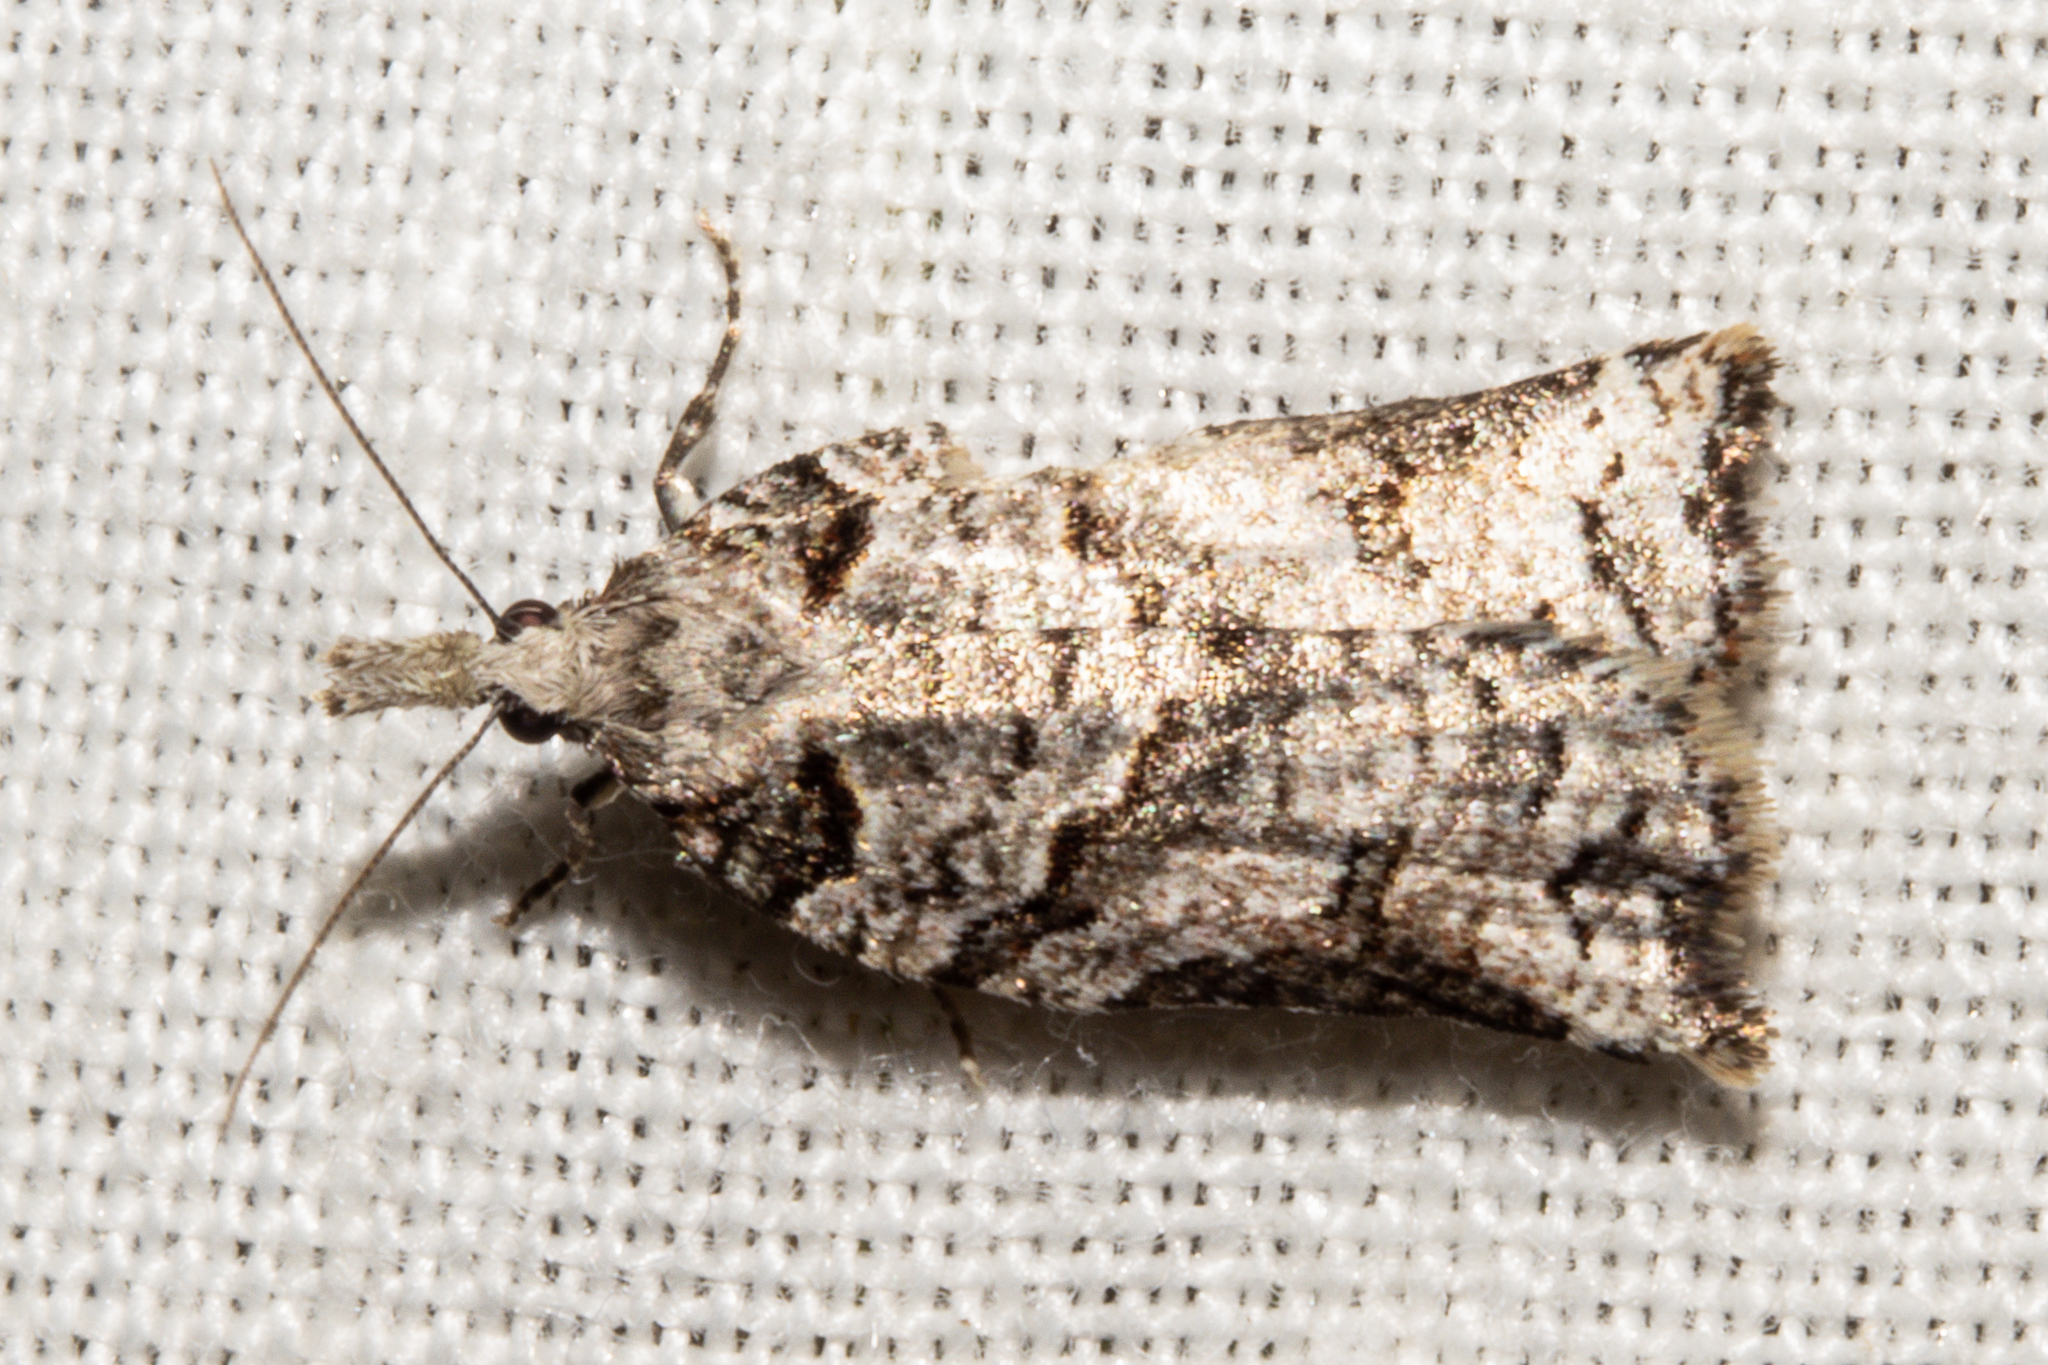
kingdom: Animalia
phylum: Arthropoda
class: Insecta
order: Lepidoptera
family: Tortricidae
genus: Harmologa
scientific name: Harmologa amplexana
